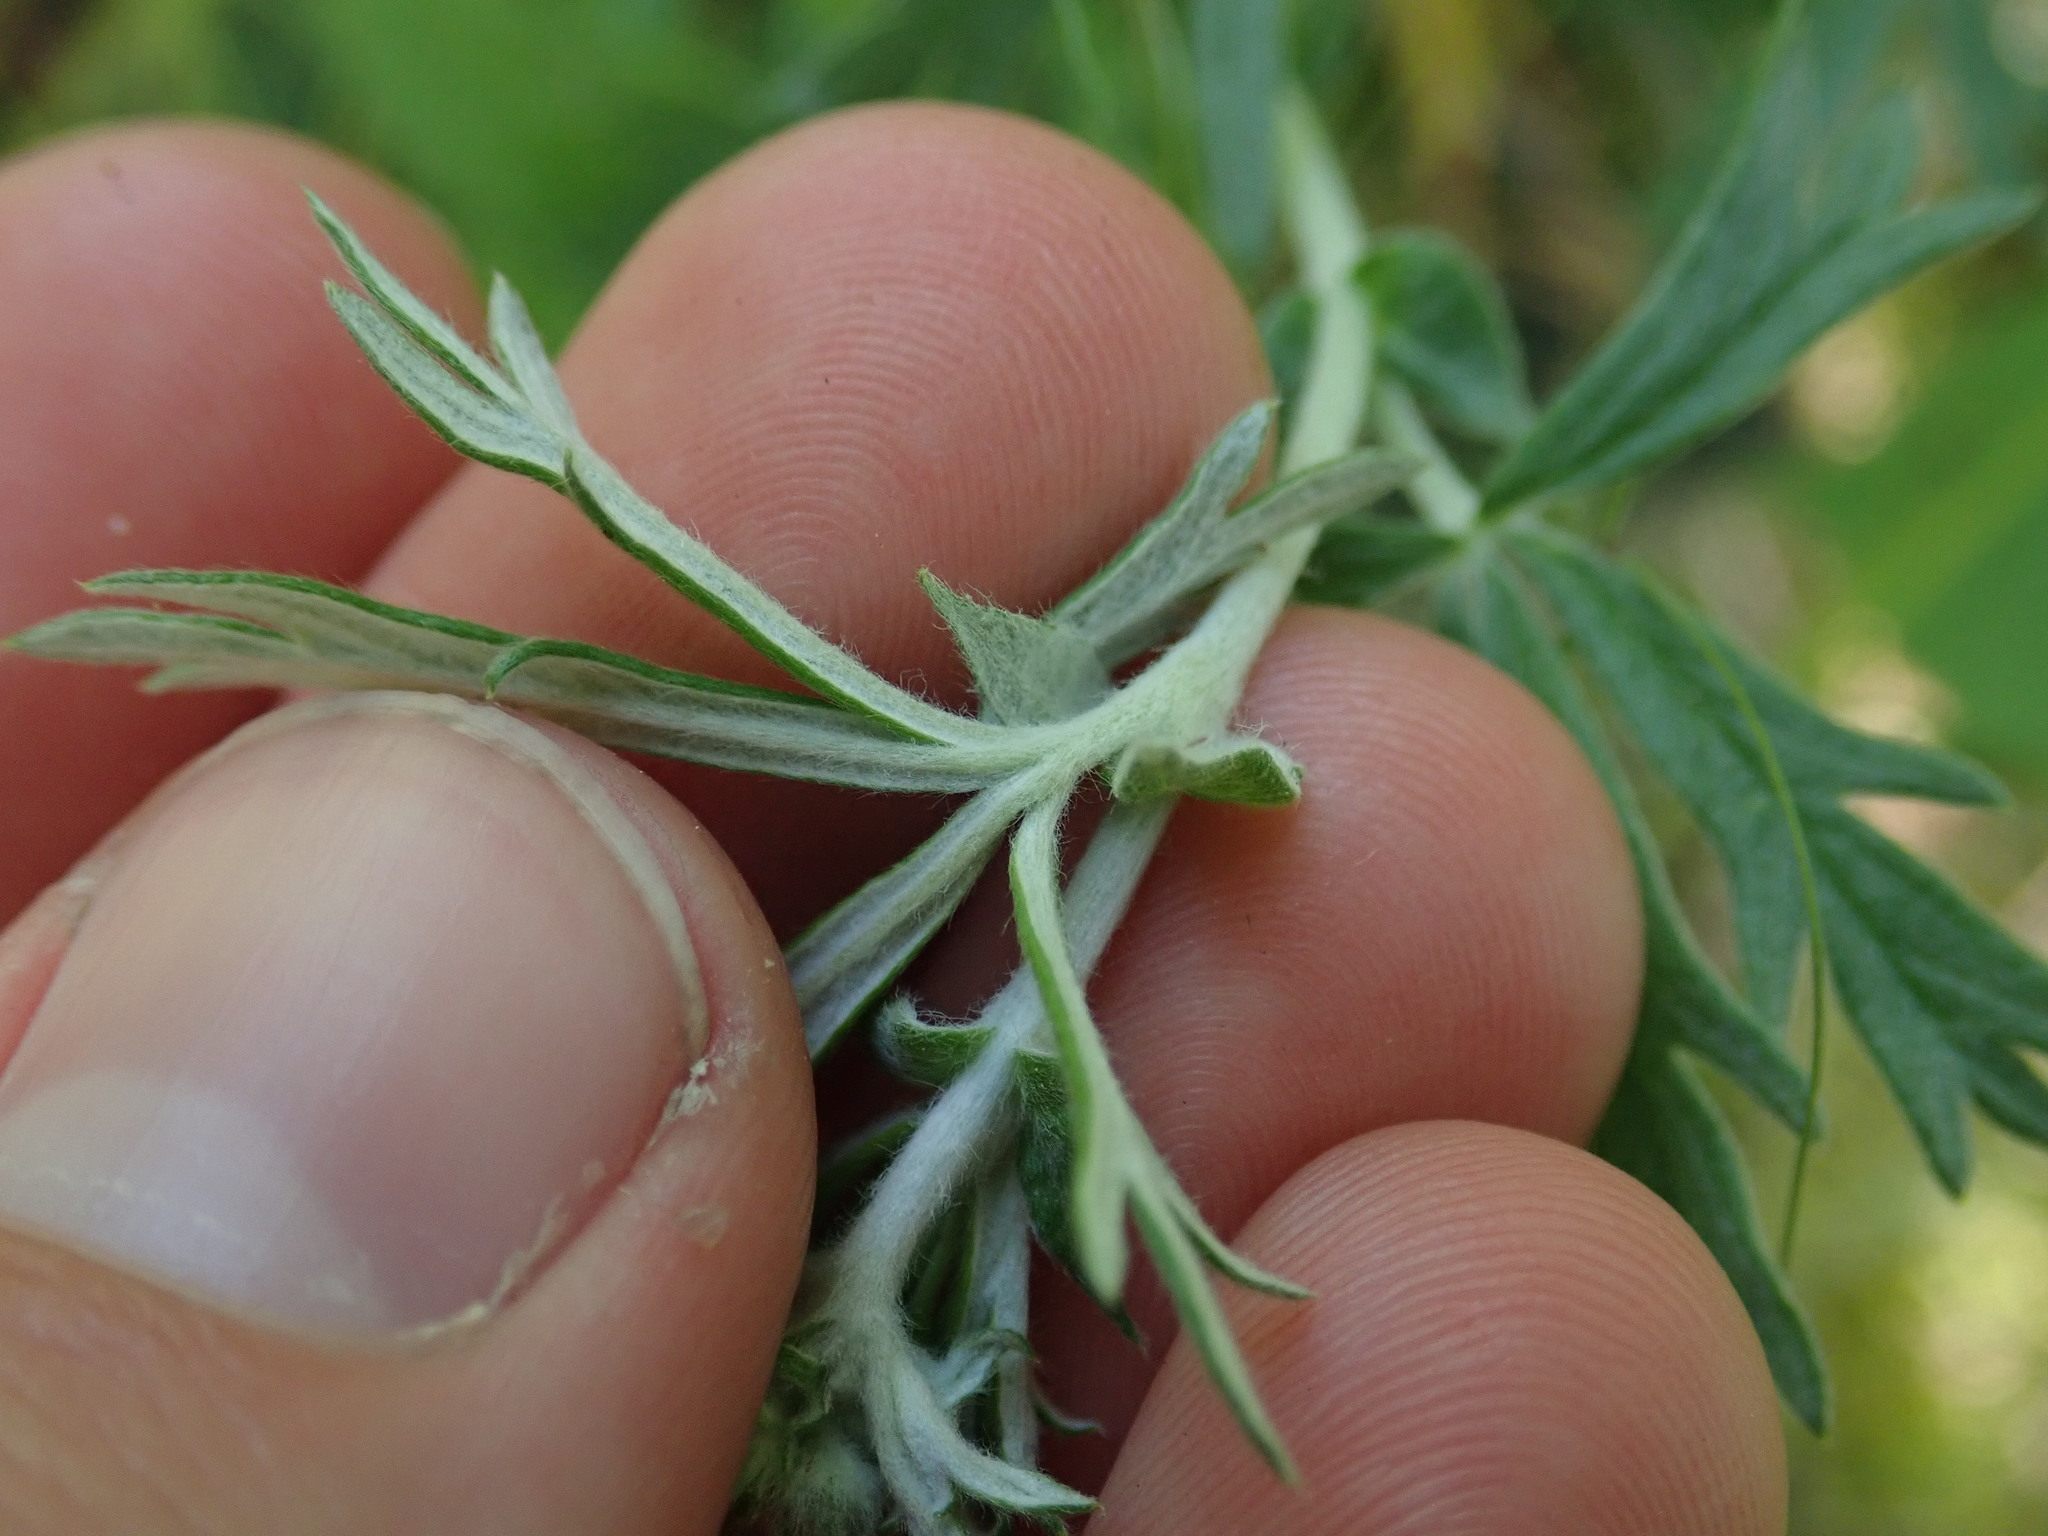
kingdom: Plantae
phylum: Tracheophyta
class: Magnoliopsida
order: Rosales
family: Rosaceae
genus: Potentilla
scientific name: Potentilla argentea
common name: Hoary cinquefoil
